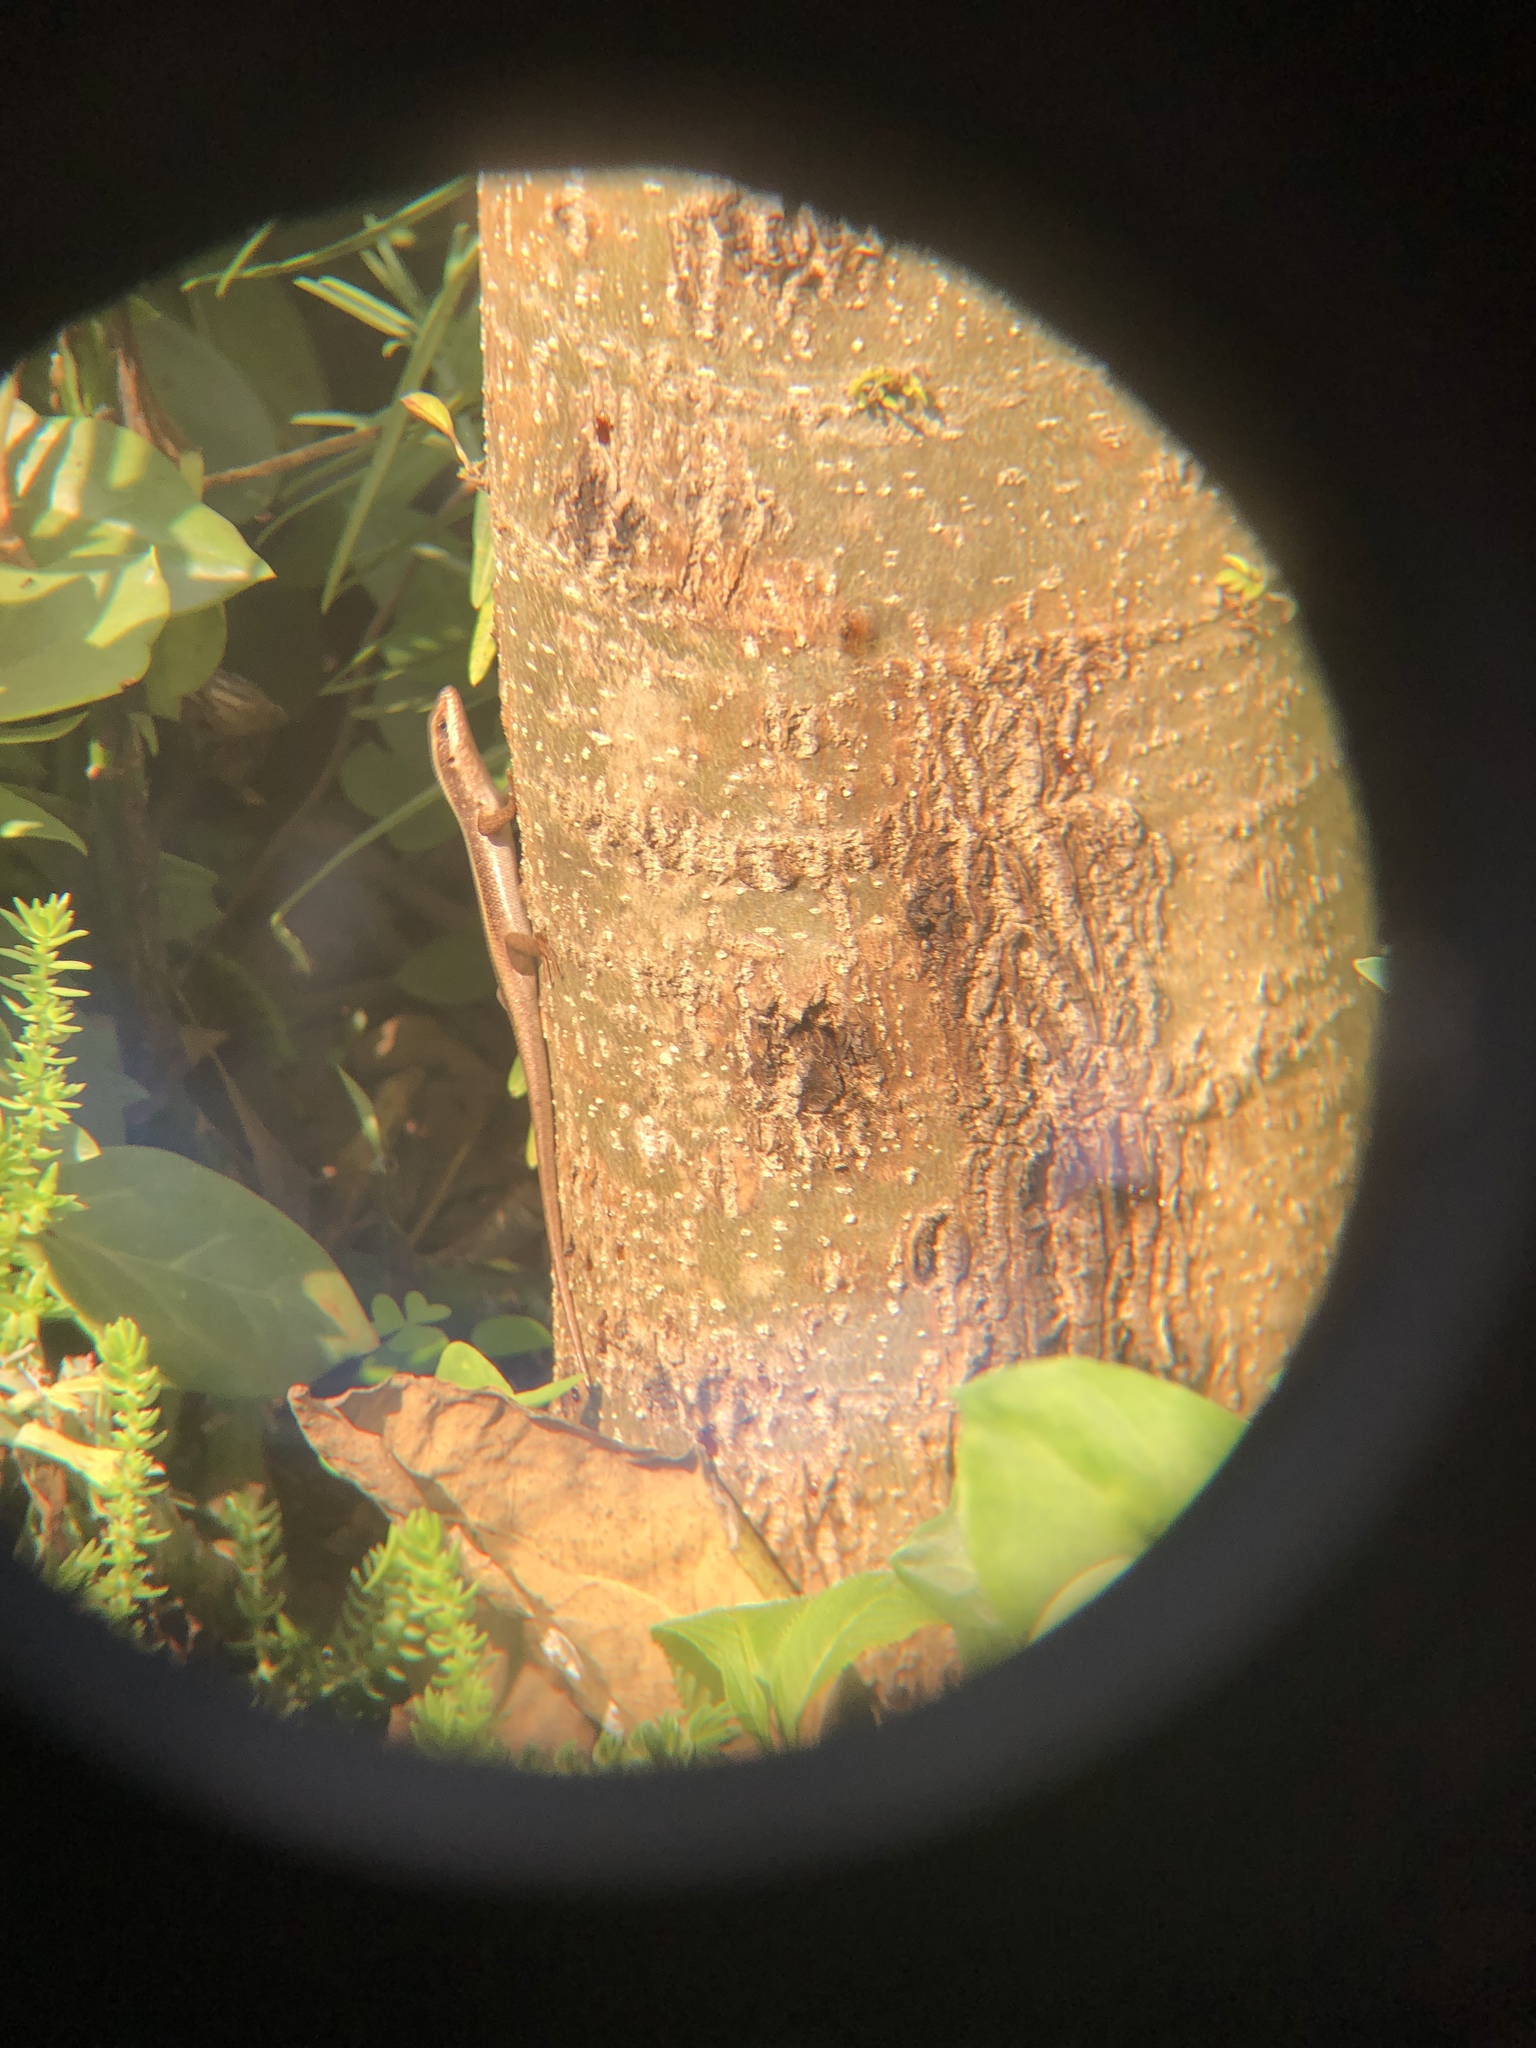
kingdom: Animalia
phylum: Chordata
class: Squamata
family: Scincidae
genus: Trachylepis
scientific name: Trachylepis striata
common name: African striped mabuya
